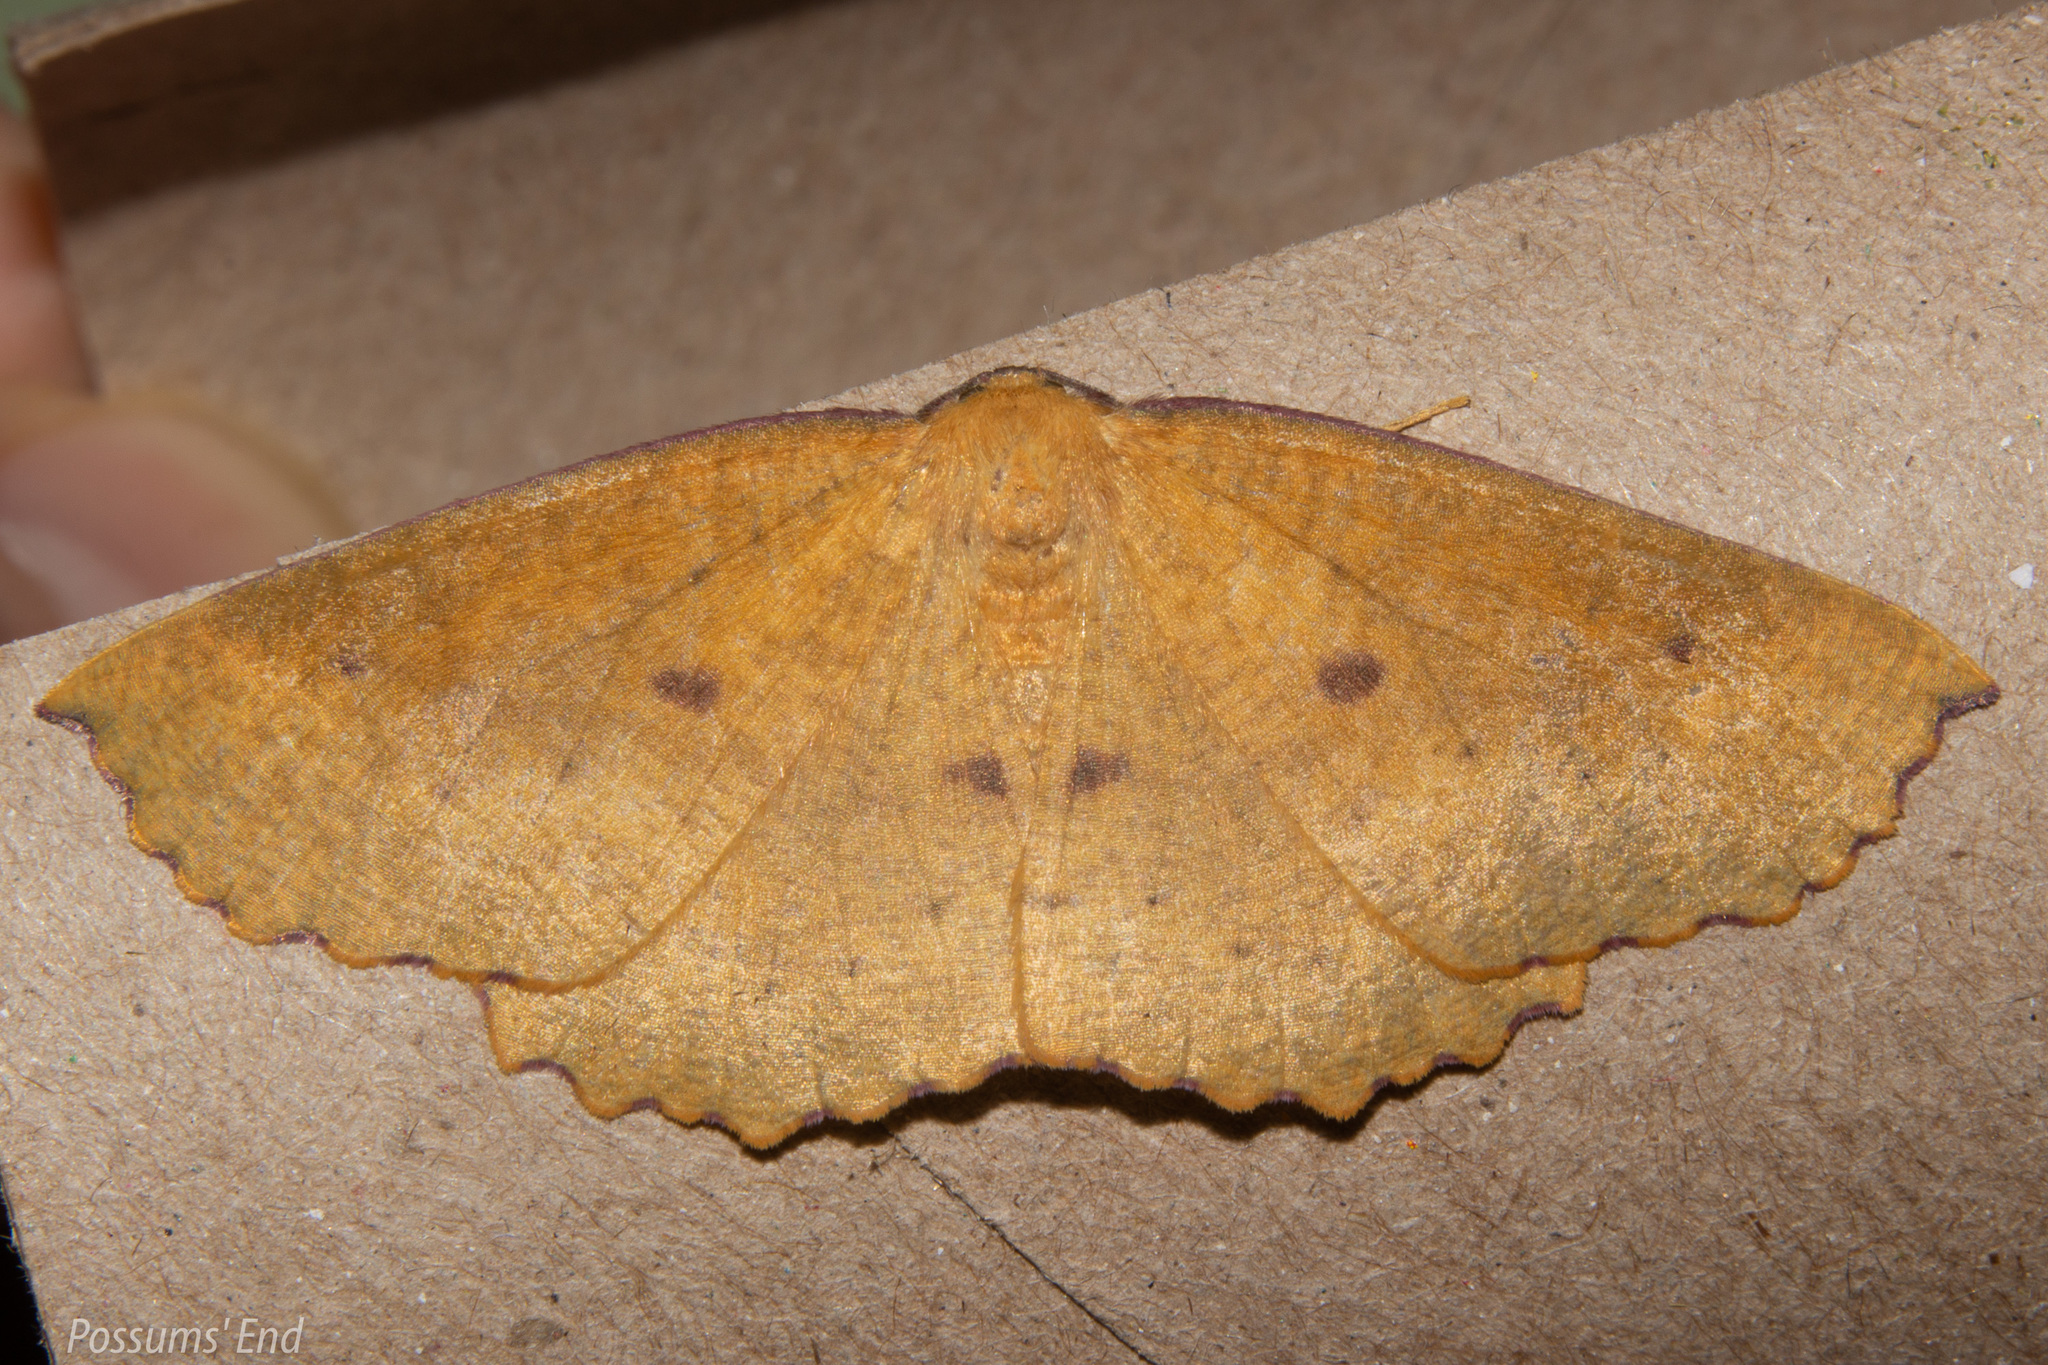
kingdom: Animalia
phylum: Arthropoda
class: Insecta
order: Lepidoptera
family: Geometridae
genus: Xyridacma
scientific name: Xyridacma alectoraria
